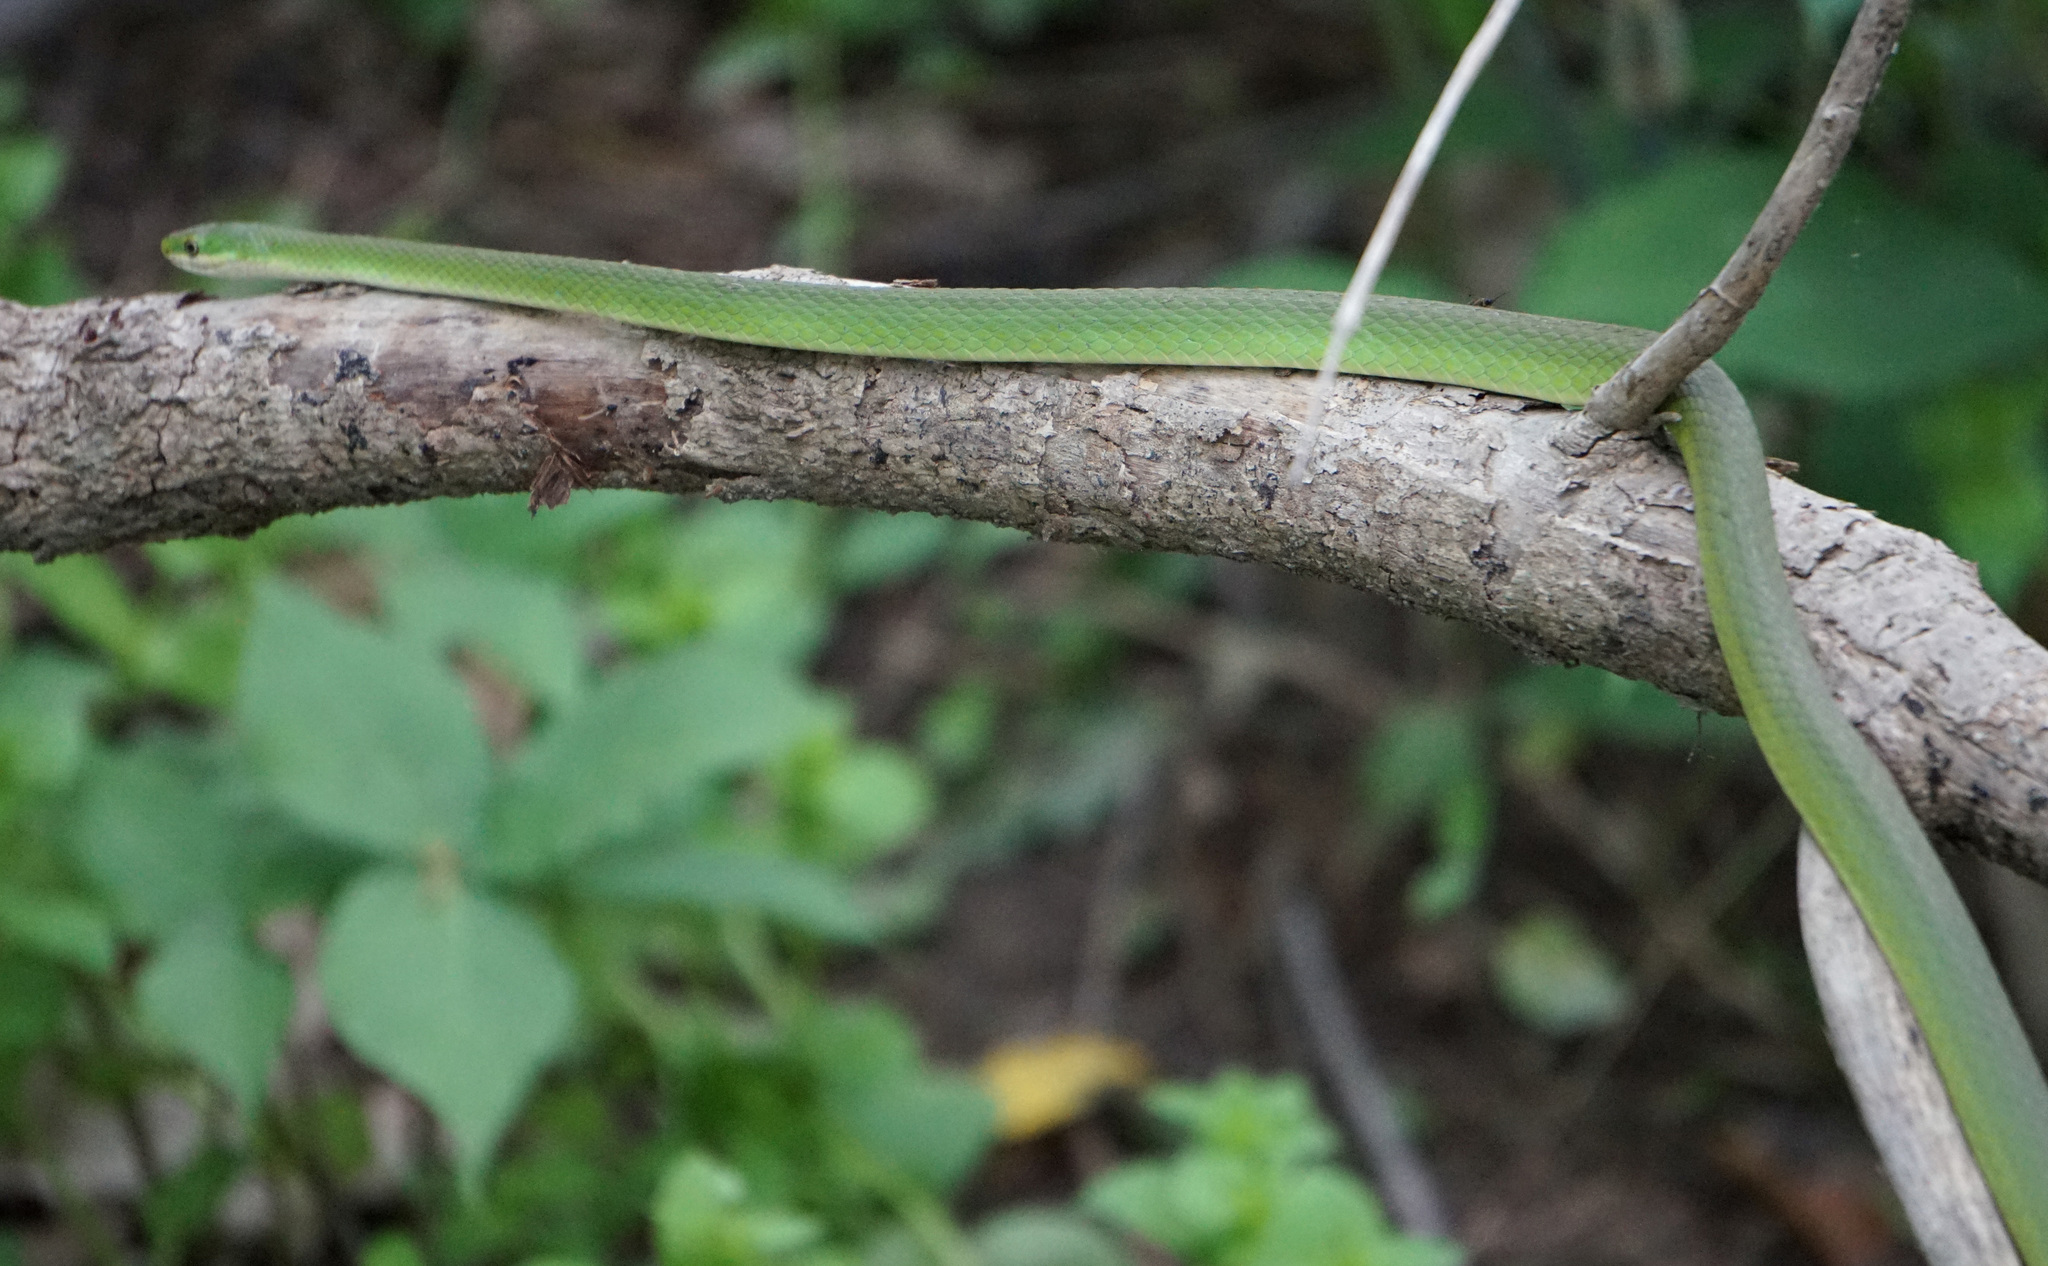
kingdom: Animalia
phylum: Chordata
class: Squamata
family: Colubridae
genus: Opheodrys
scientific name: Opheodrys aestivus
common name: Rough greensnake
